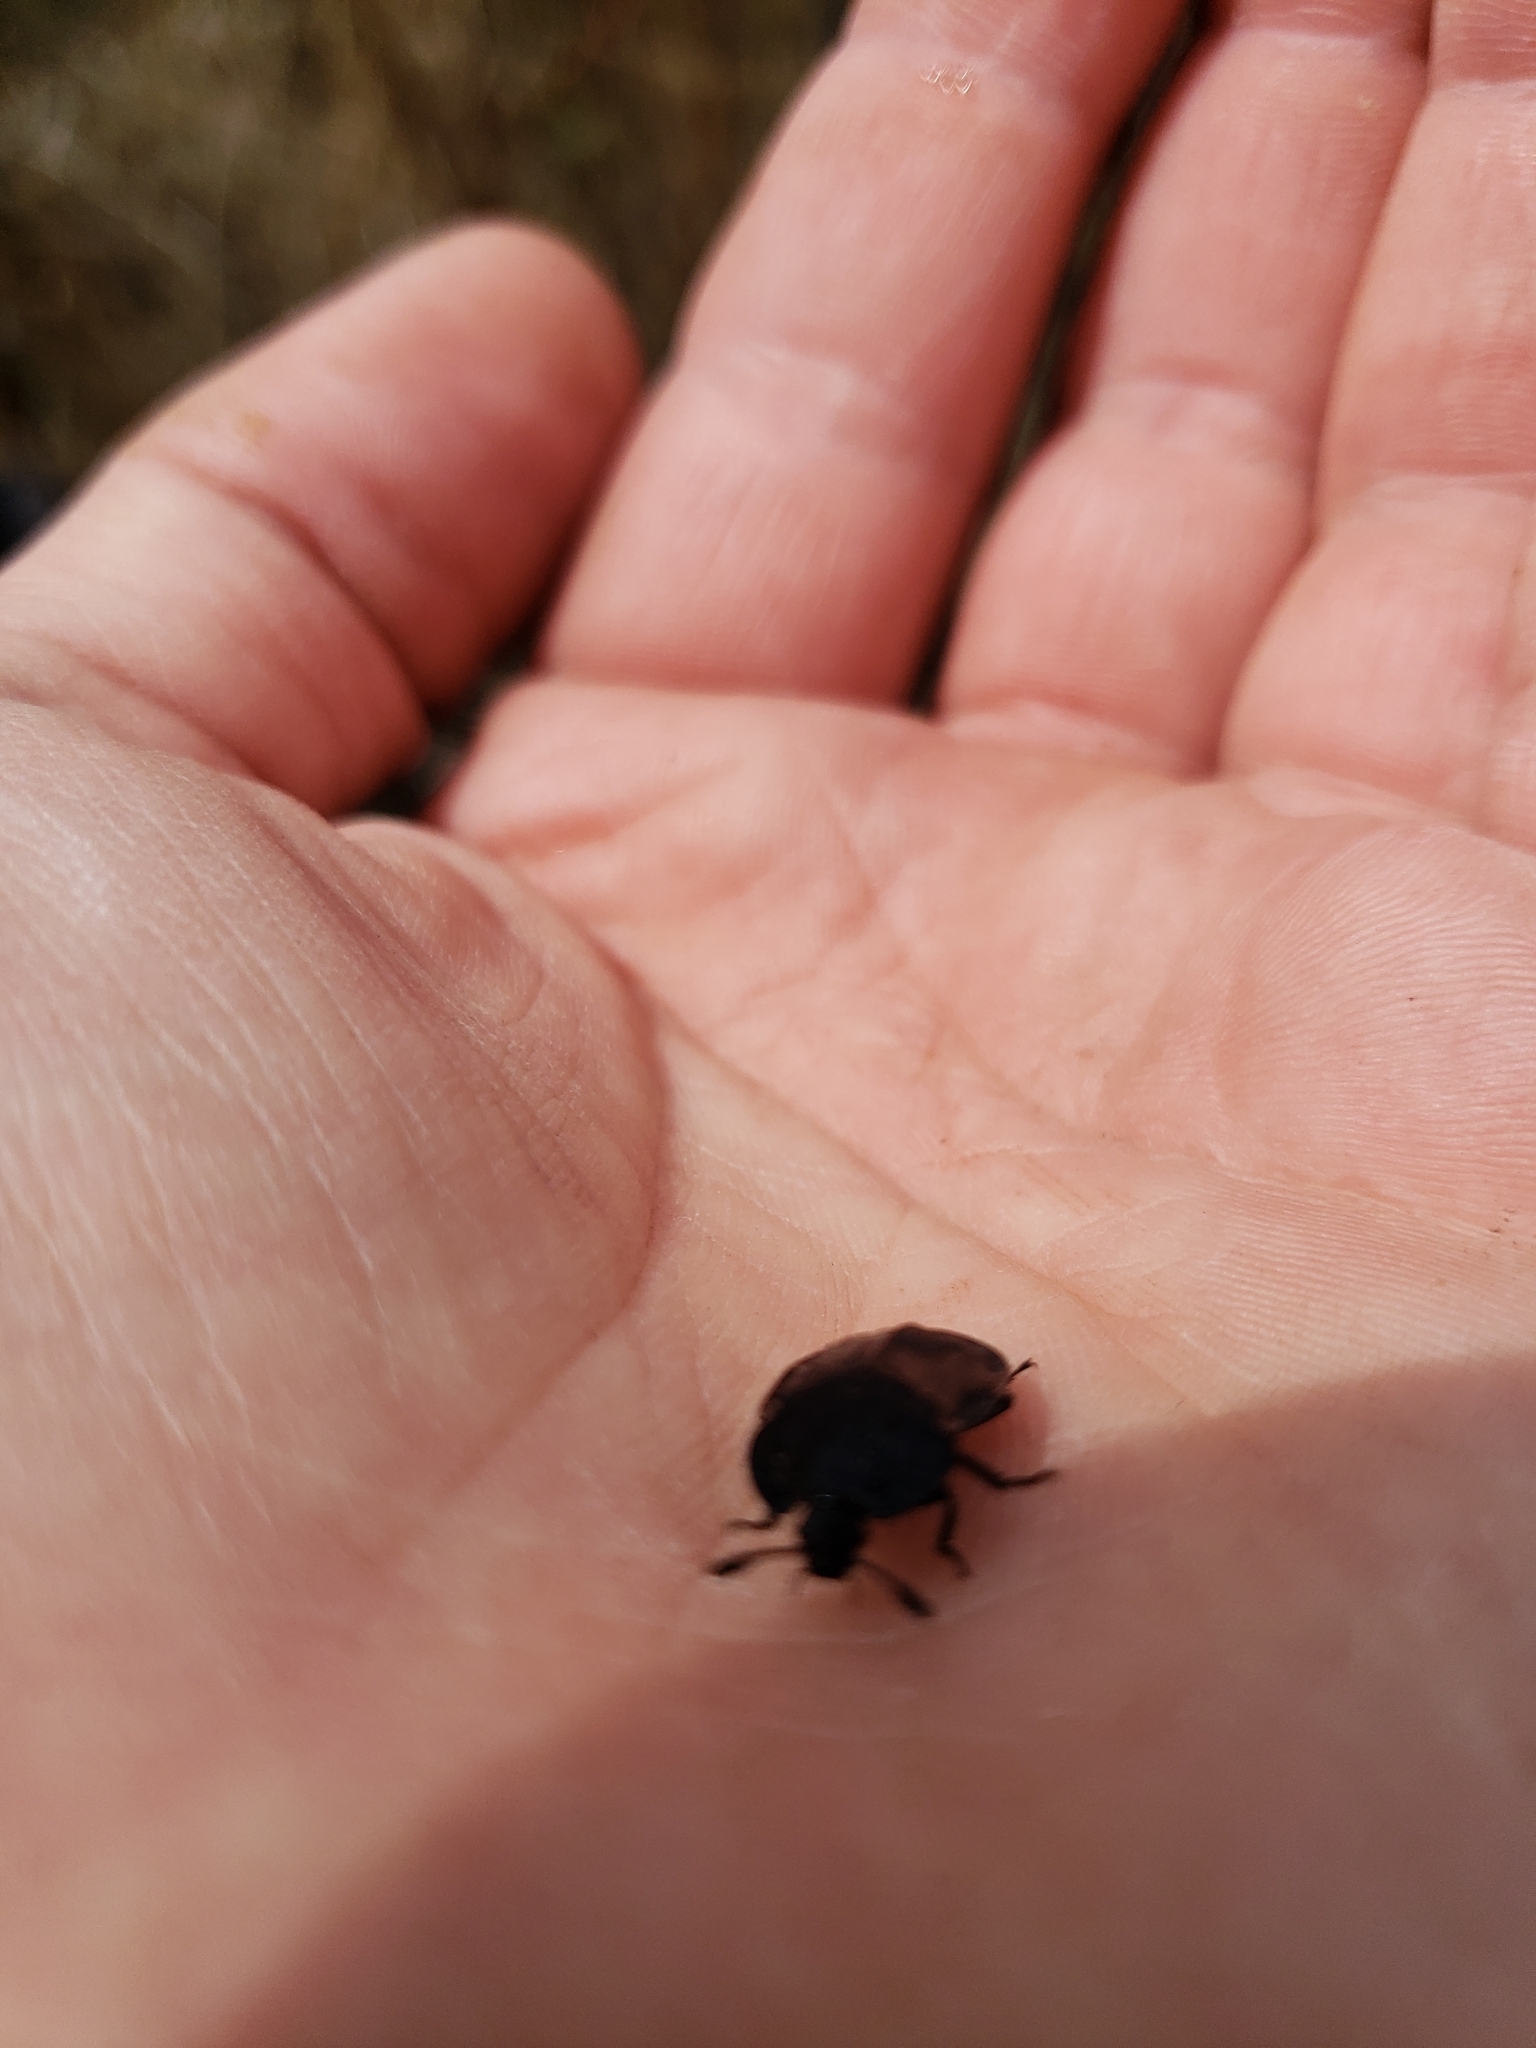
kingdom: Animalia
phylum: Arthropoda
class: Insecta
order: Coleoptera
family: Staphylinidae
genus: Oiceoptoma
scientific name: Oiceoptoma inaequale
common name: Ridged carrion beetle
